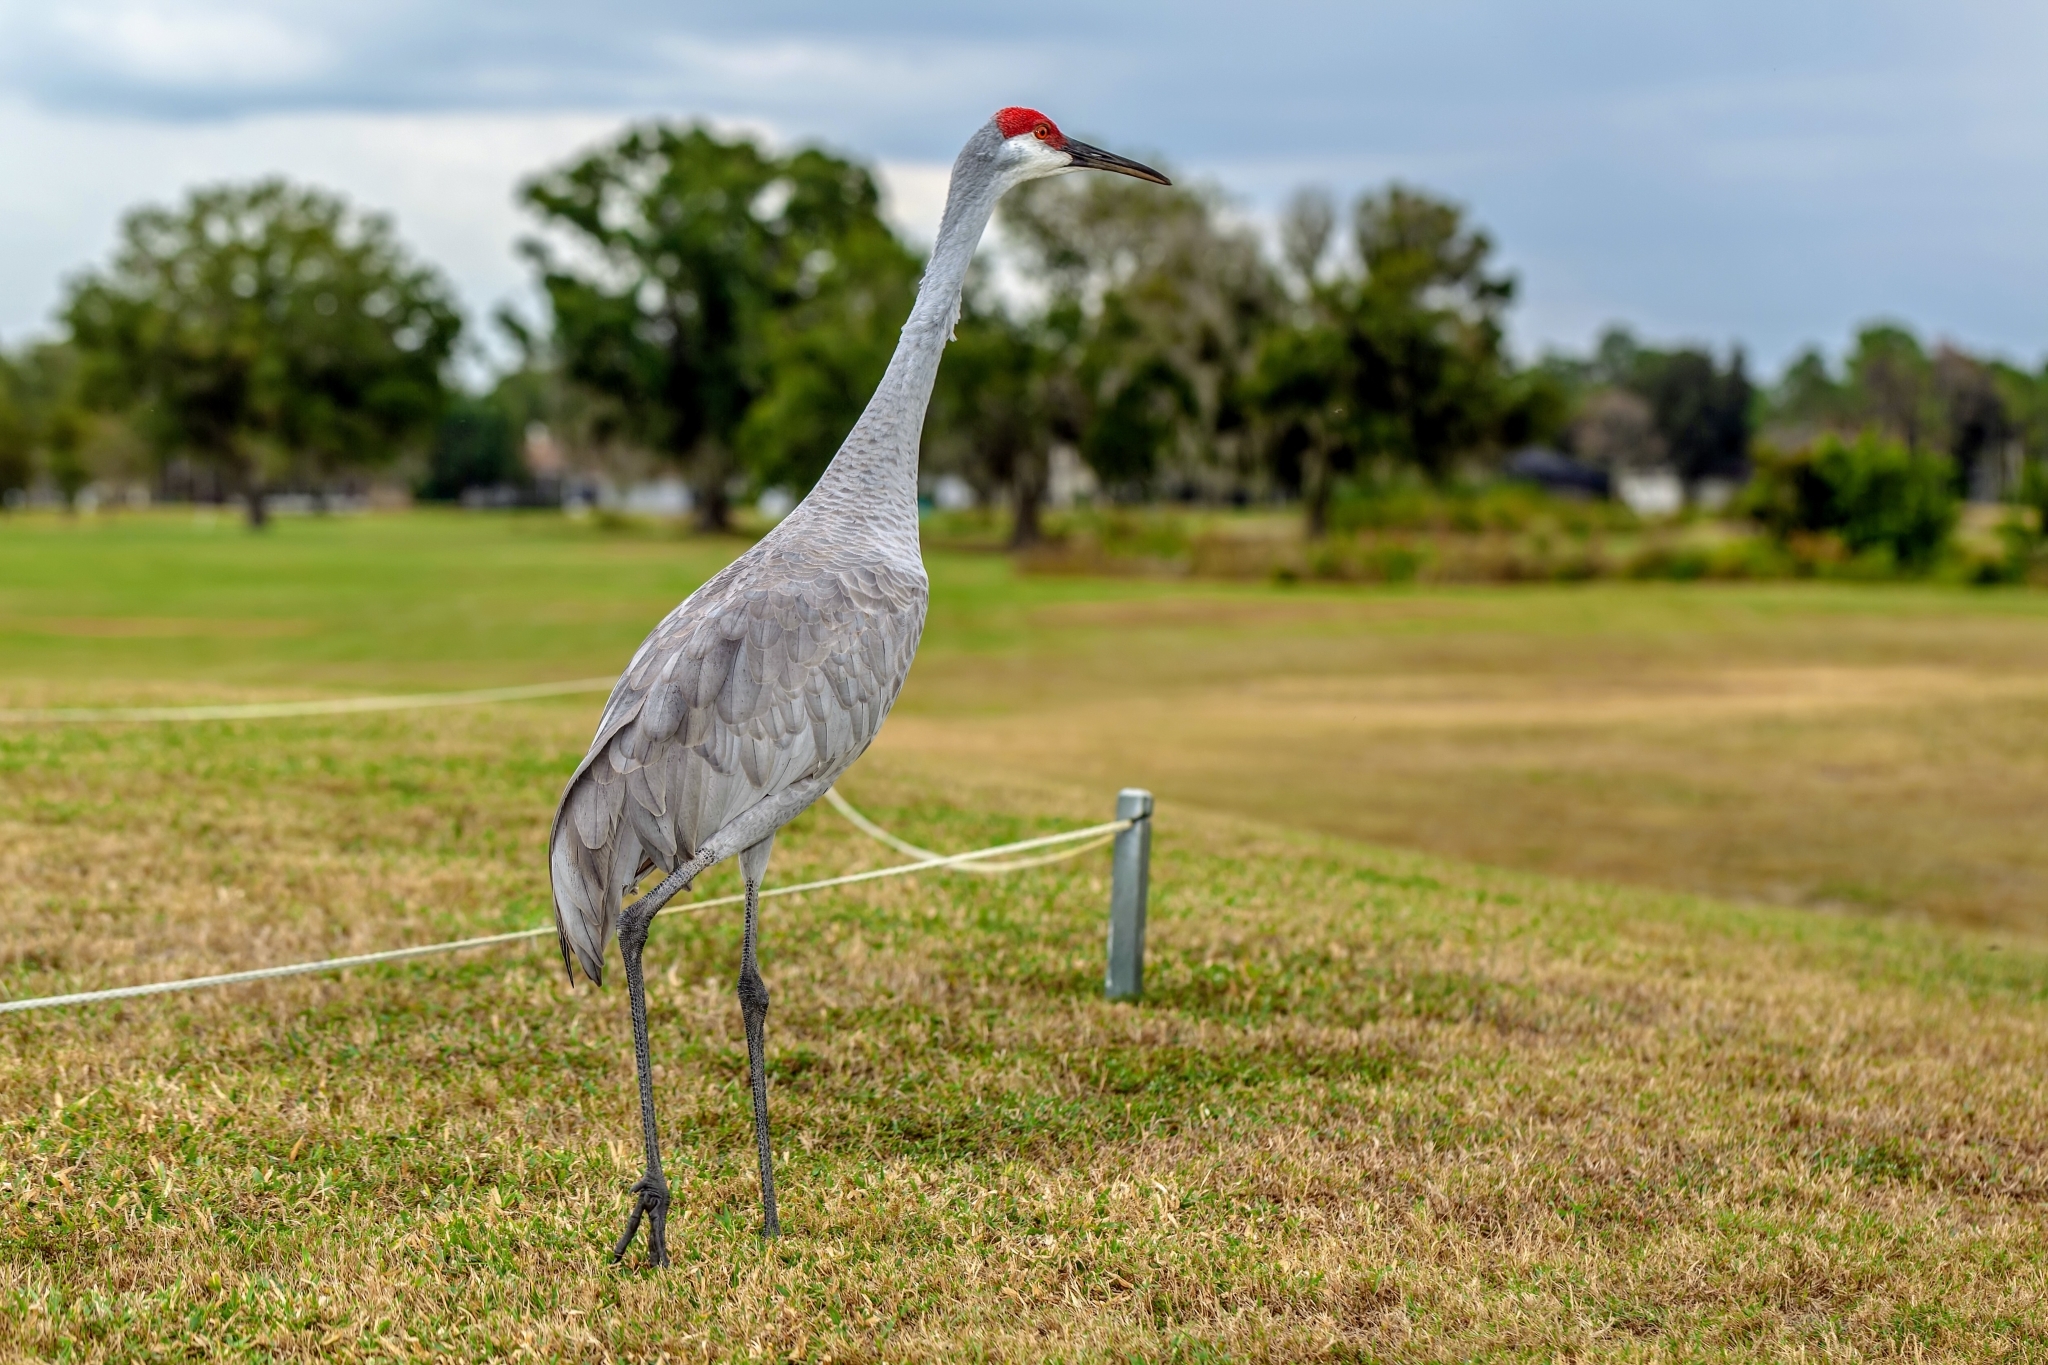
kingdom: Animalia
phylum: Chordata
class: Aves
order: Gruiformes
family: Gruidae
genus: Grus
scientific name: Grus canadensis
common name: Sandhill crane
